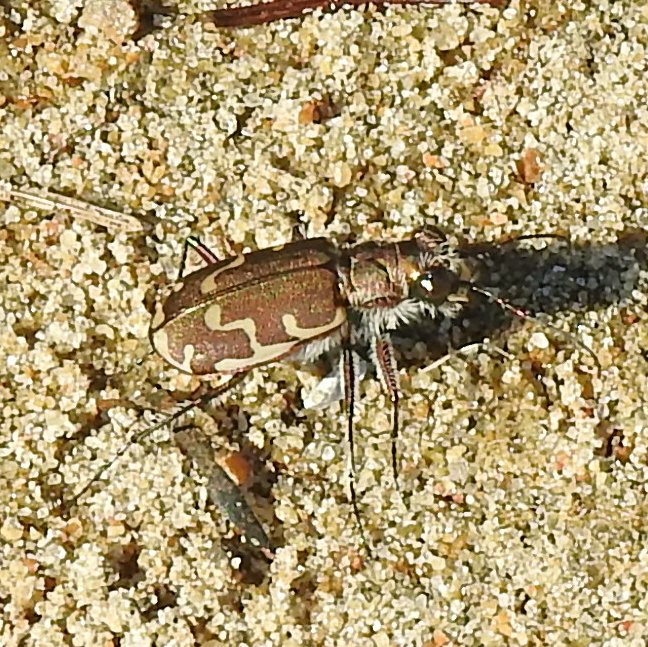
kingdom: Animalia
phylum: Arthropoda
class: Insecta
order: Coleoptera
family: Carabidae
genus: Cicindela
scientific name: Cicindela repanda
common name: Bronzed tiger beetle
